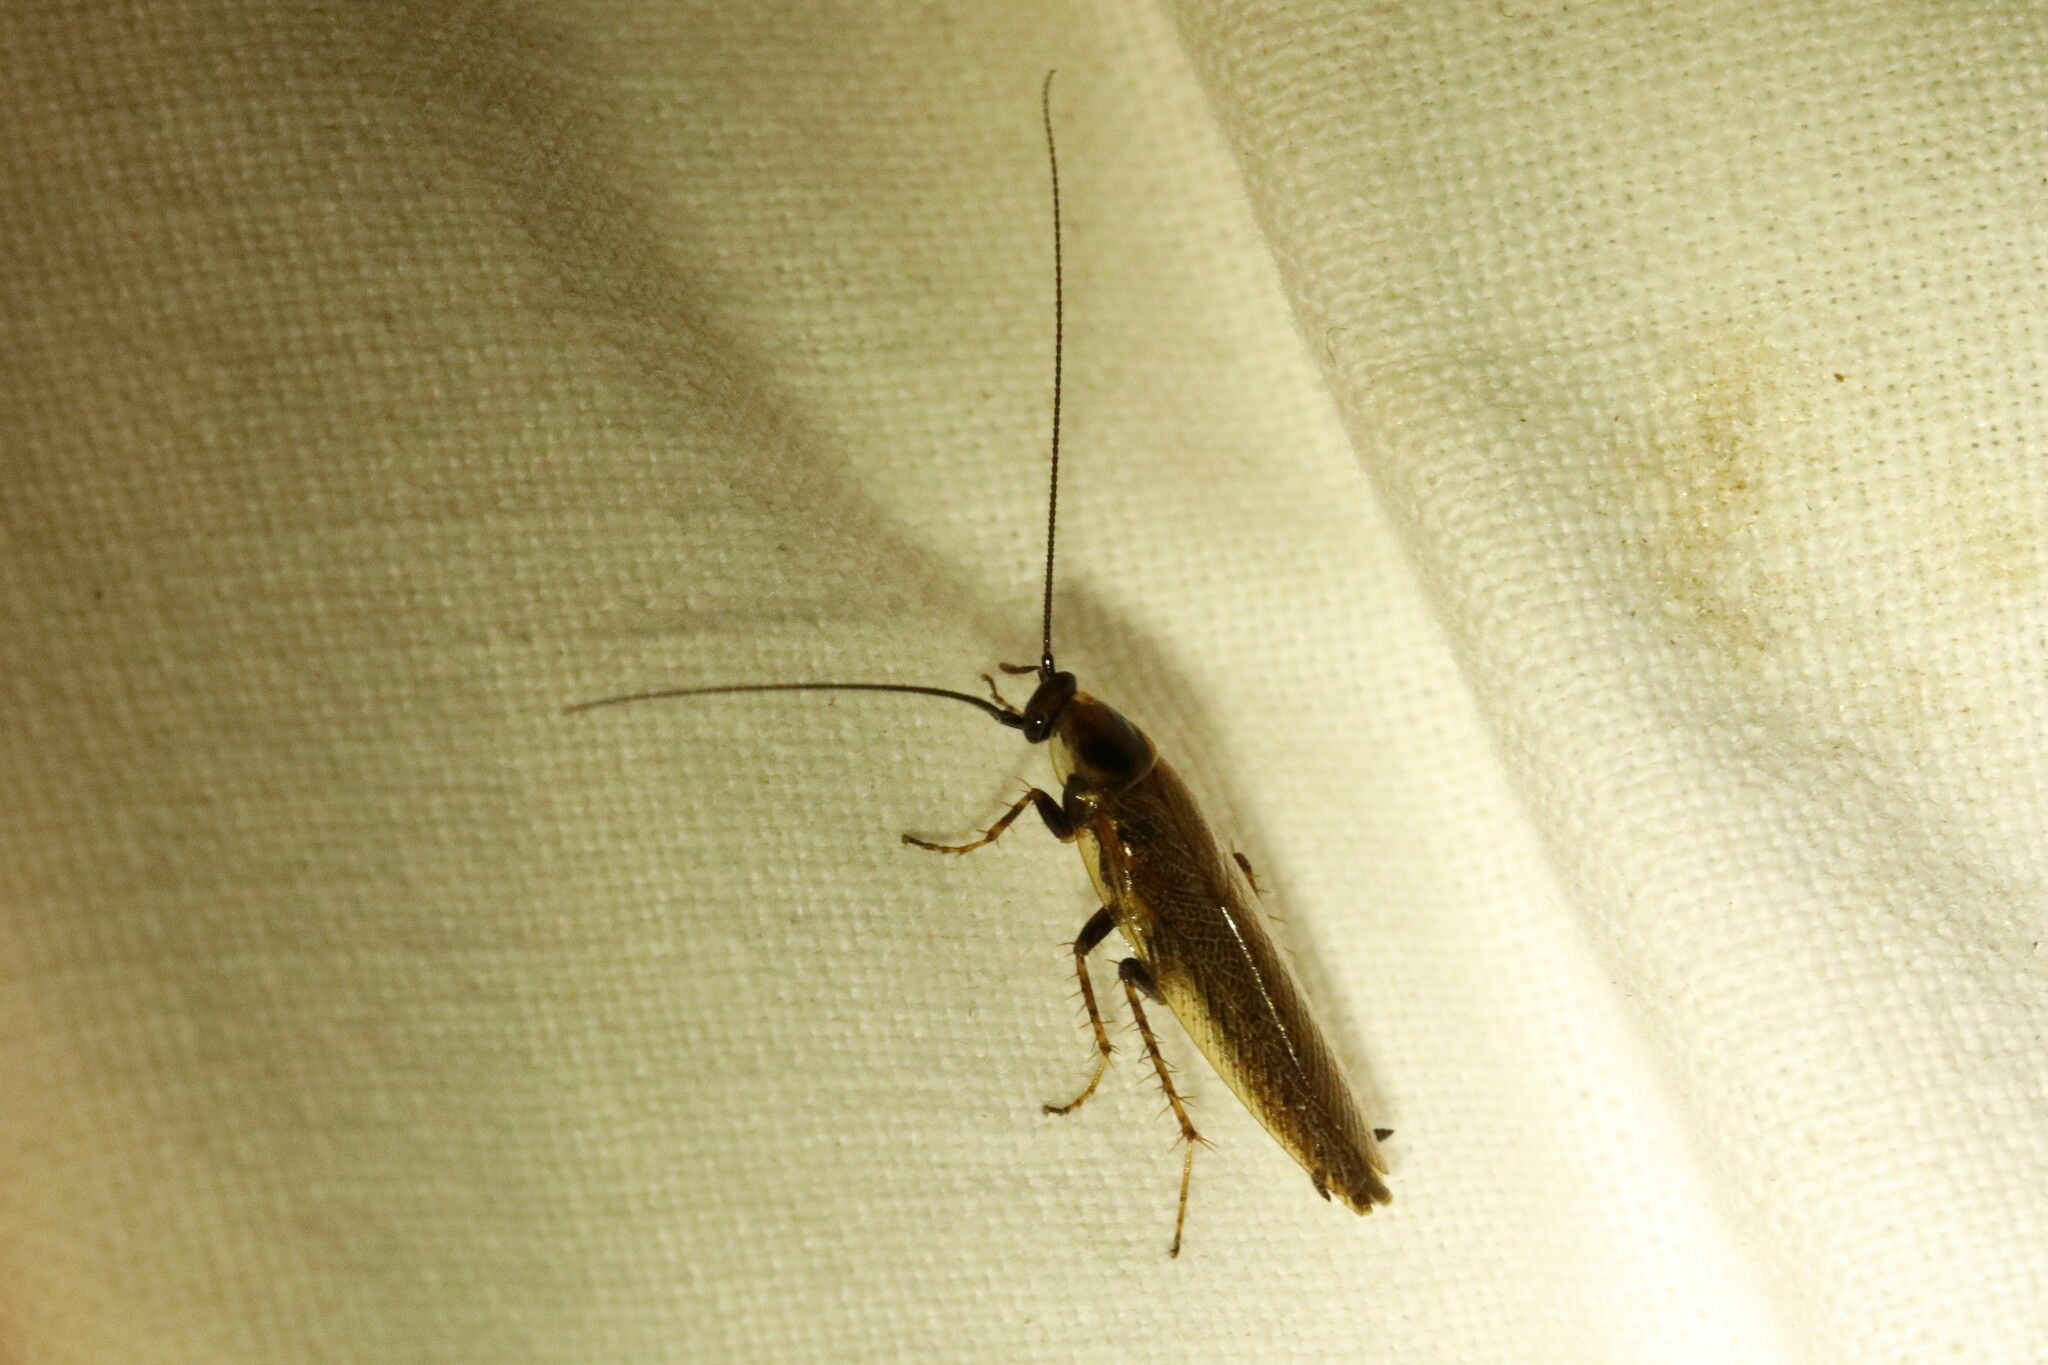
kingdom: Animalia
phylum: Arthropoda
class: Insecta
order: Blattodea
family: Ectobiidae
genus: Ectobius
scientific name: Ectobius lapponicus
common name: Dusky cockroach
